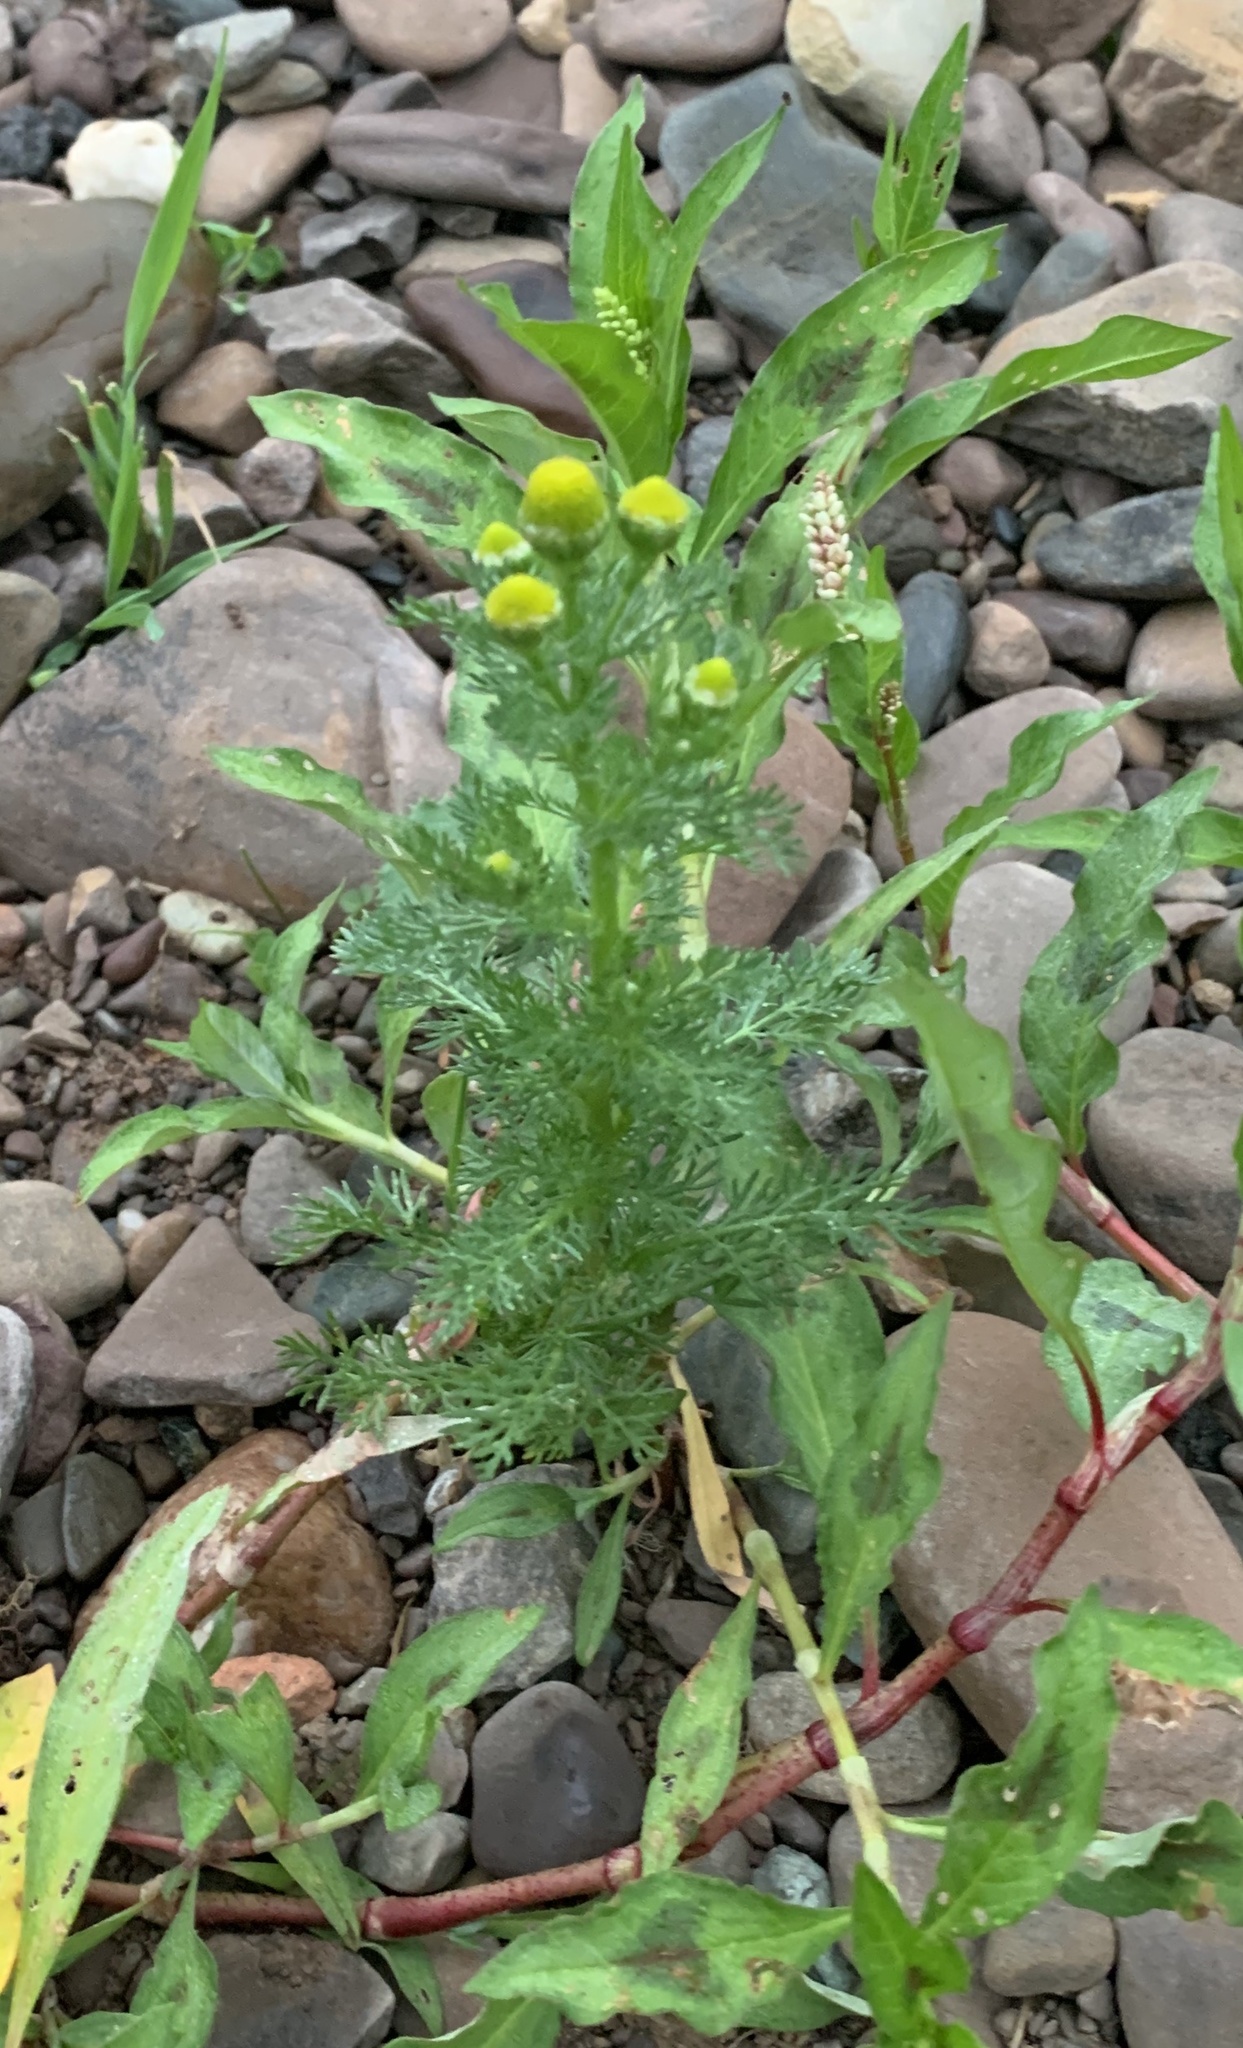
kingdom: Plantae
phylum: Tracheophyta
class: Magnoliopsida
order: Asterales
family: Asteraceae
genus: Matricaria
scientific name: Matricaria discoidea
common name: Disc mayweed
